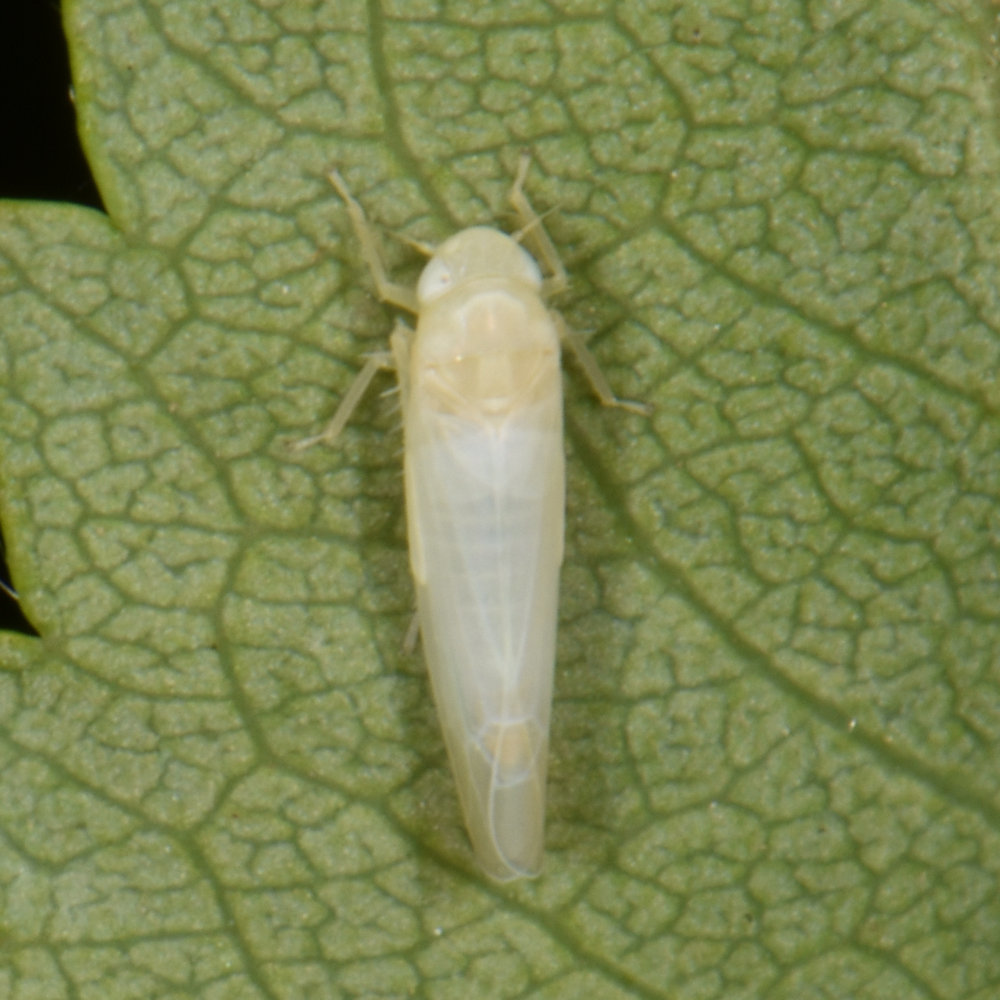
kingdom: Animalia
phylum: Arthropoda
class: Insecta
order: Hemiptera
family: Cicadellidae
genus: Edwardsiana
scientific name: Edwardsiana rosae
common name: Rose leafhopper
